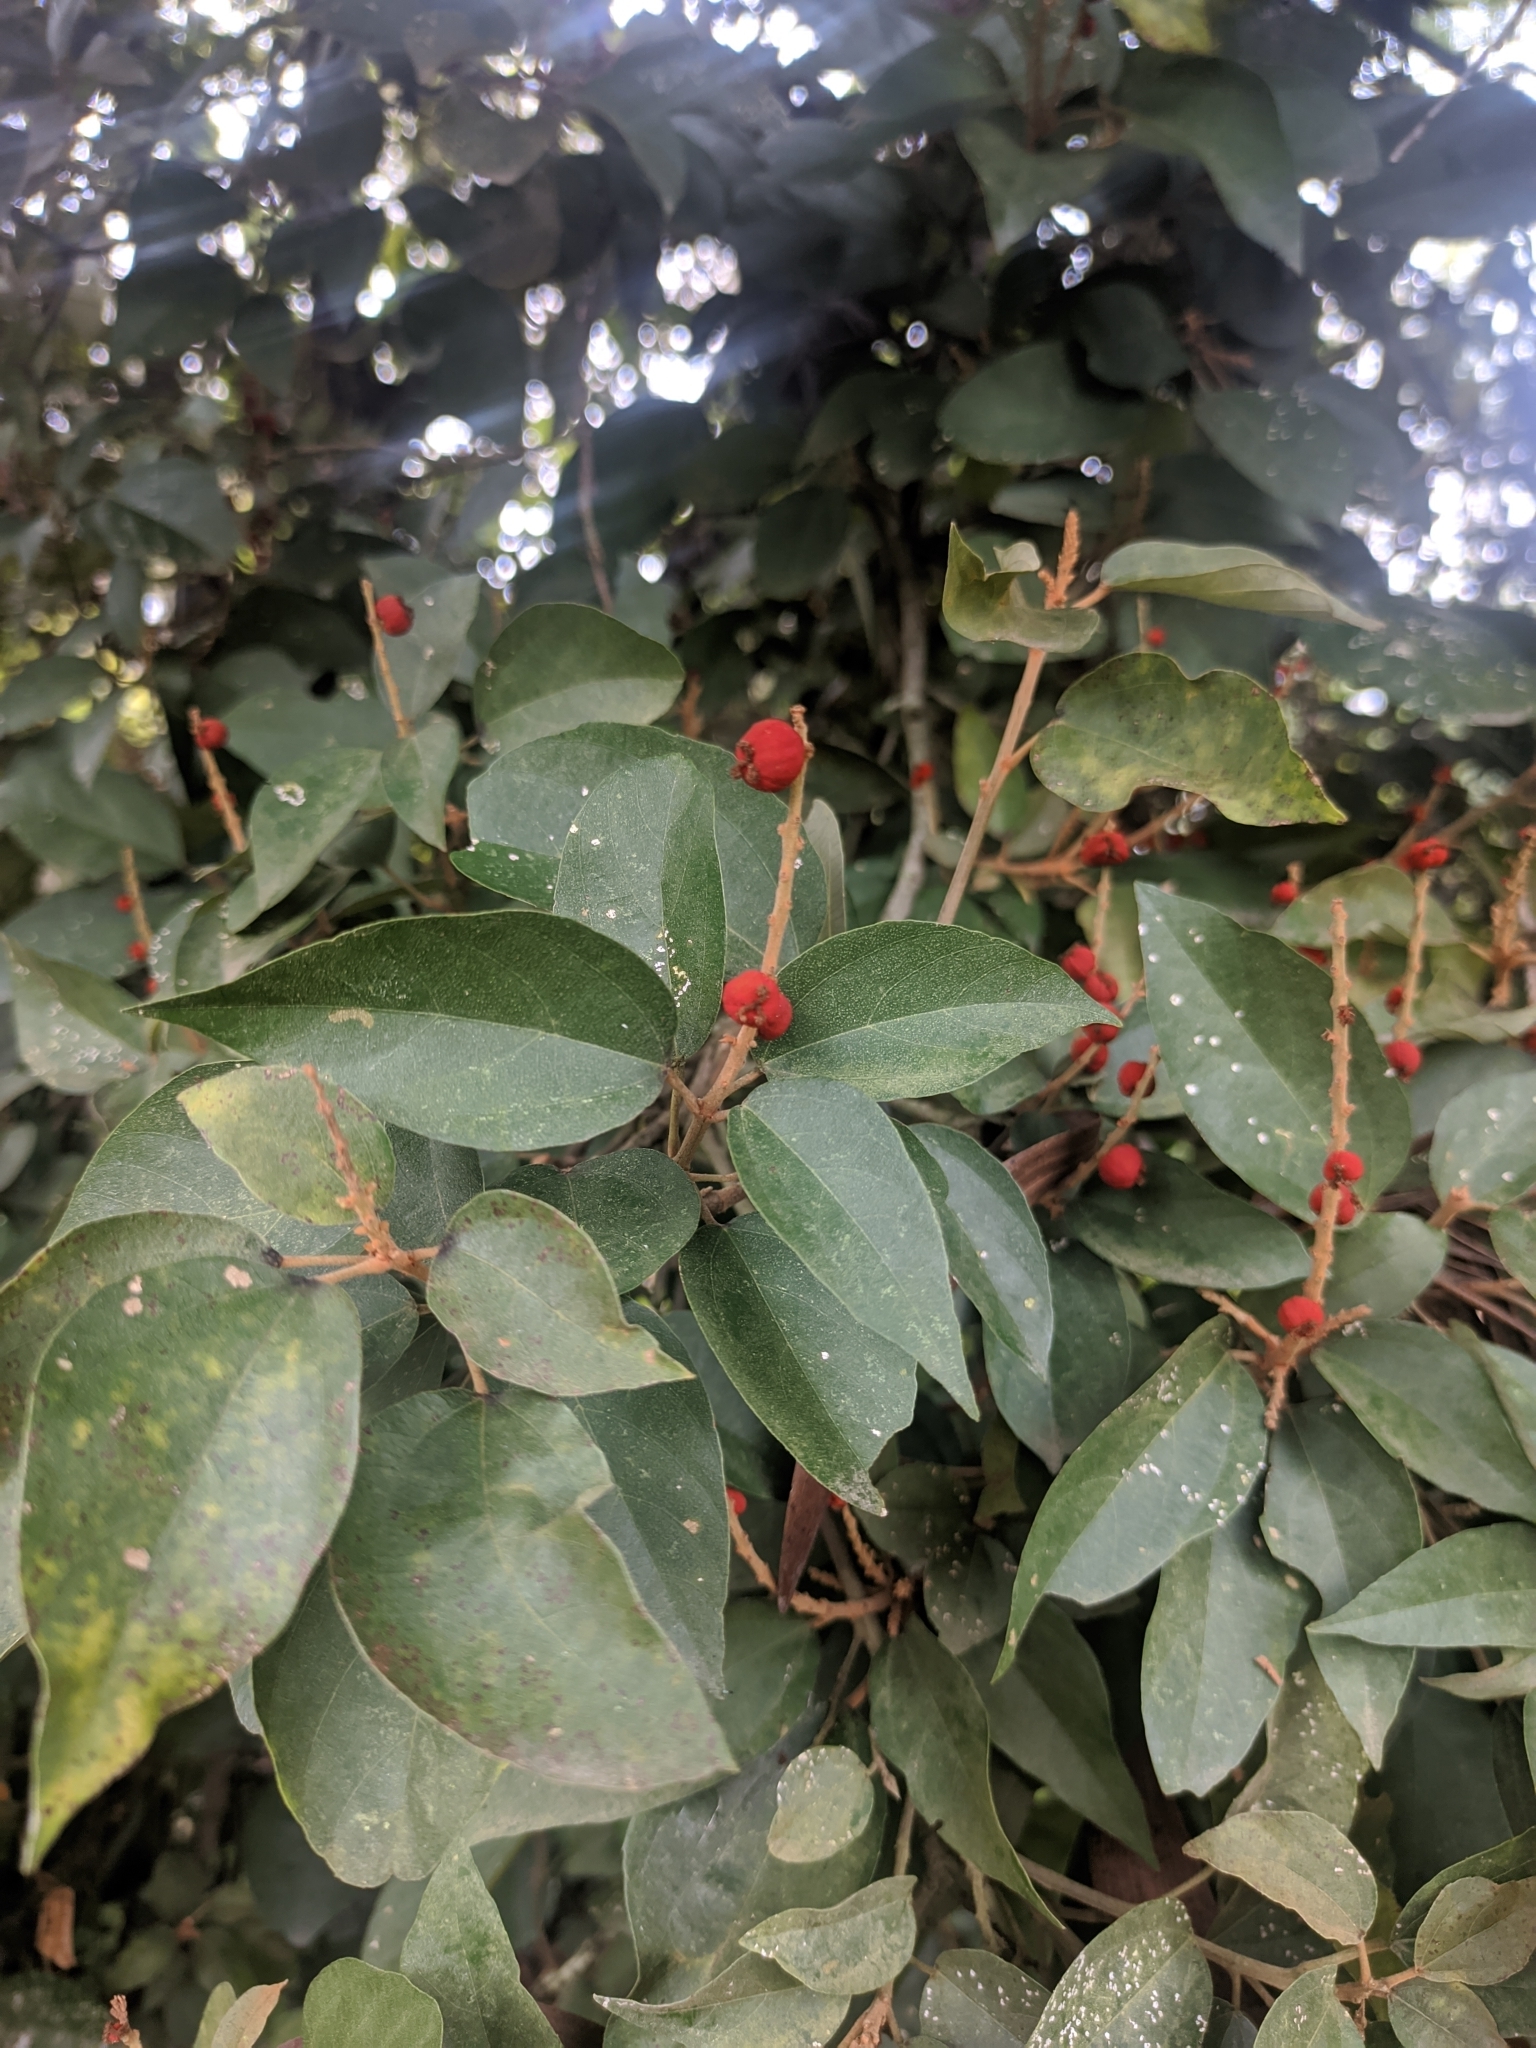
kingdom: Plantae
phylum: Tracheophyta
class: Magnoliopsida
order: Malpighiales
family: Euphorbiaceae
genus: Mallotus
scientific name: Mallotus philippensis
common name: Kamala tree
